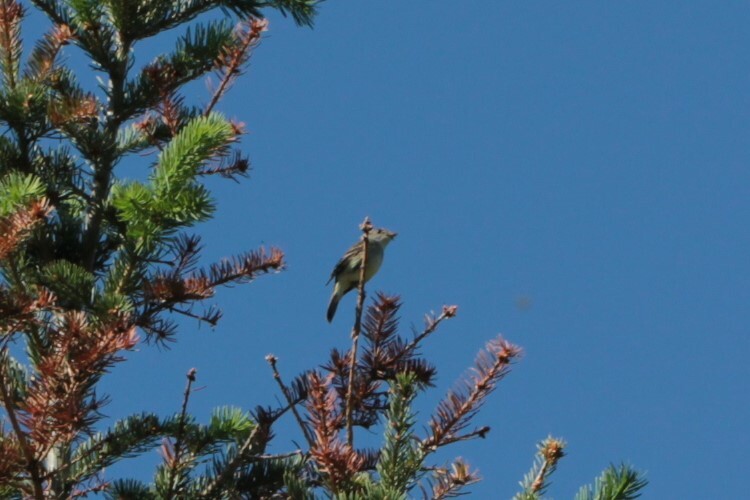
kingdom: Animalia
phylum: Chordata
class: Aves
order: Passeriformes
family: Tyrannidae
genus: Empidonax
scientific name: Empidonax traillii
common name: Willow flycatcher
